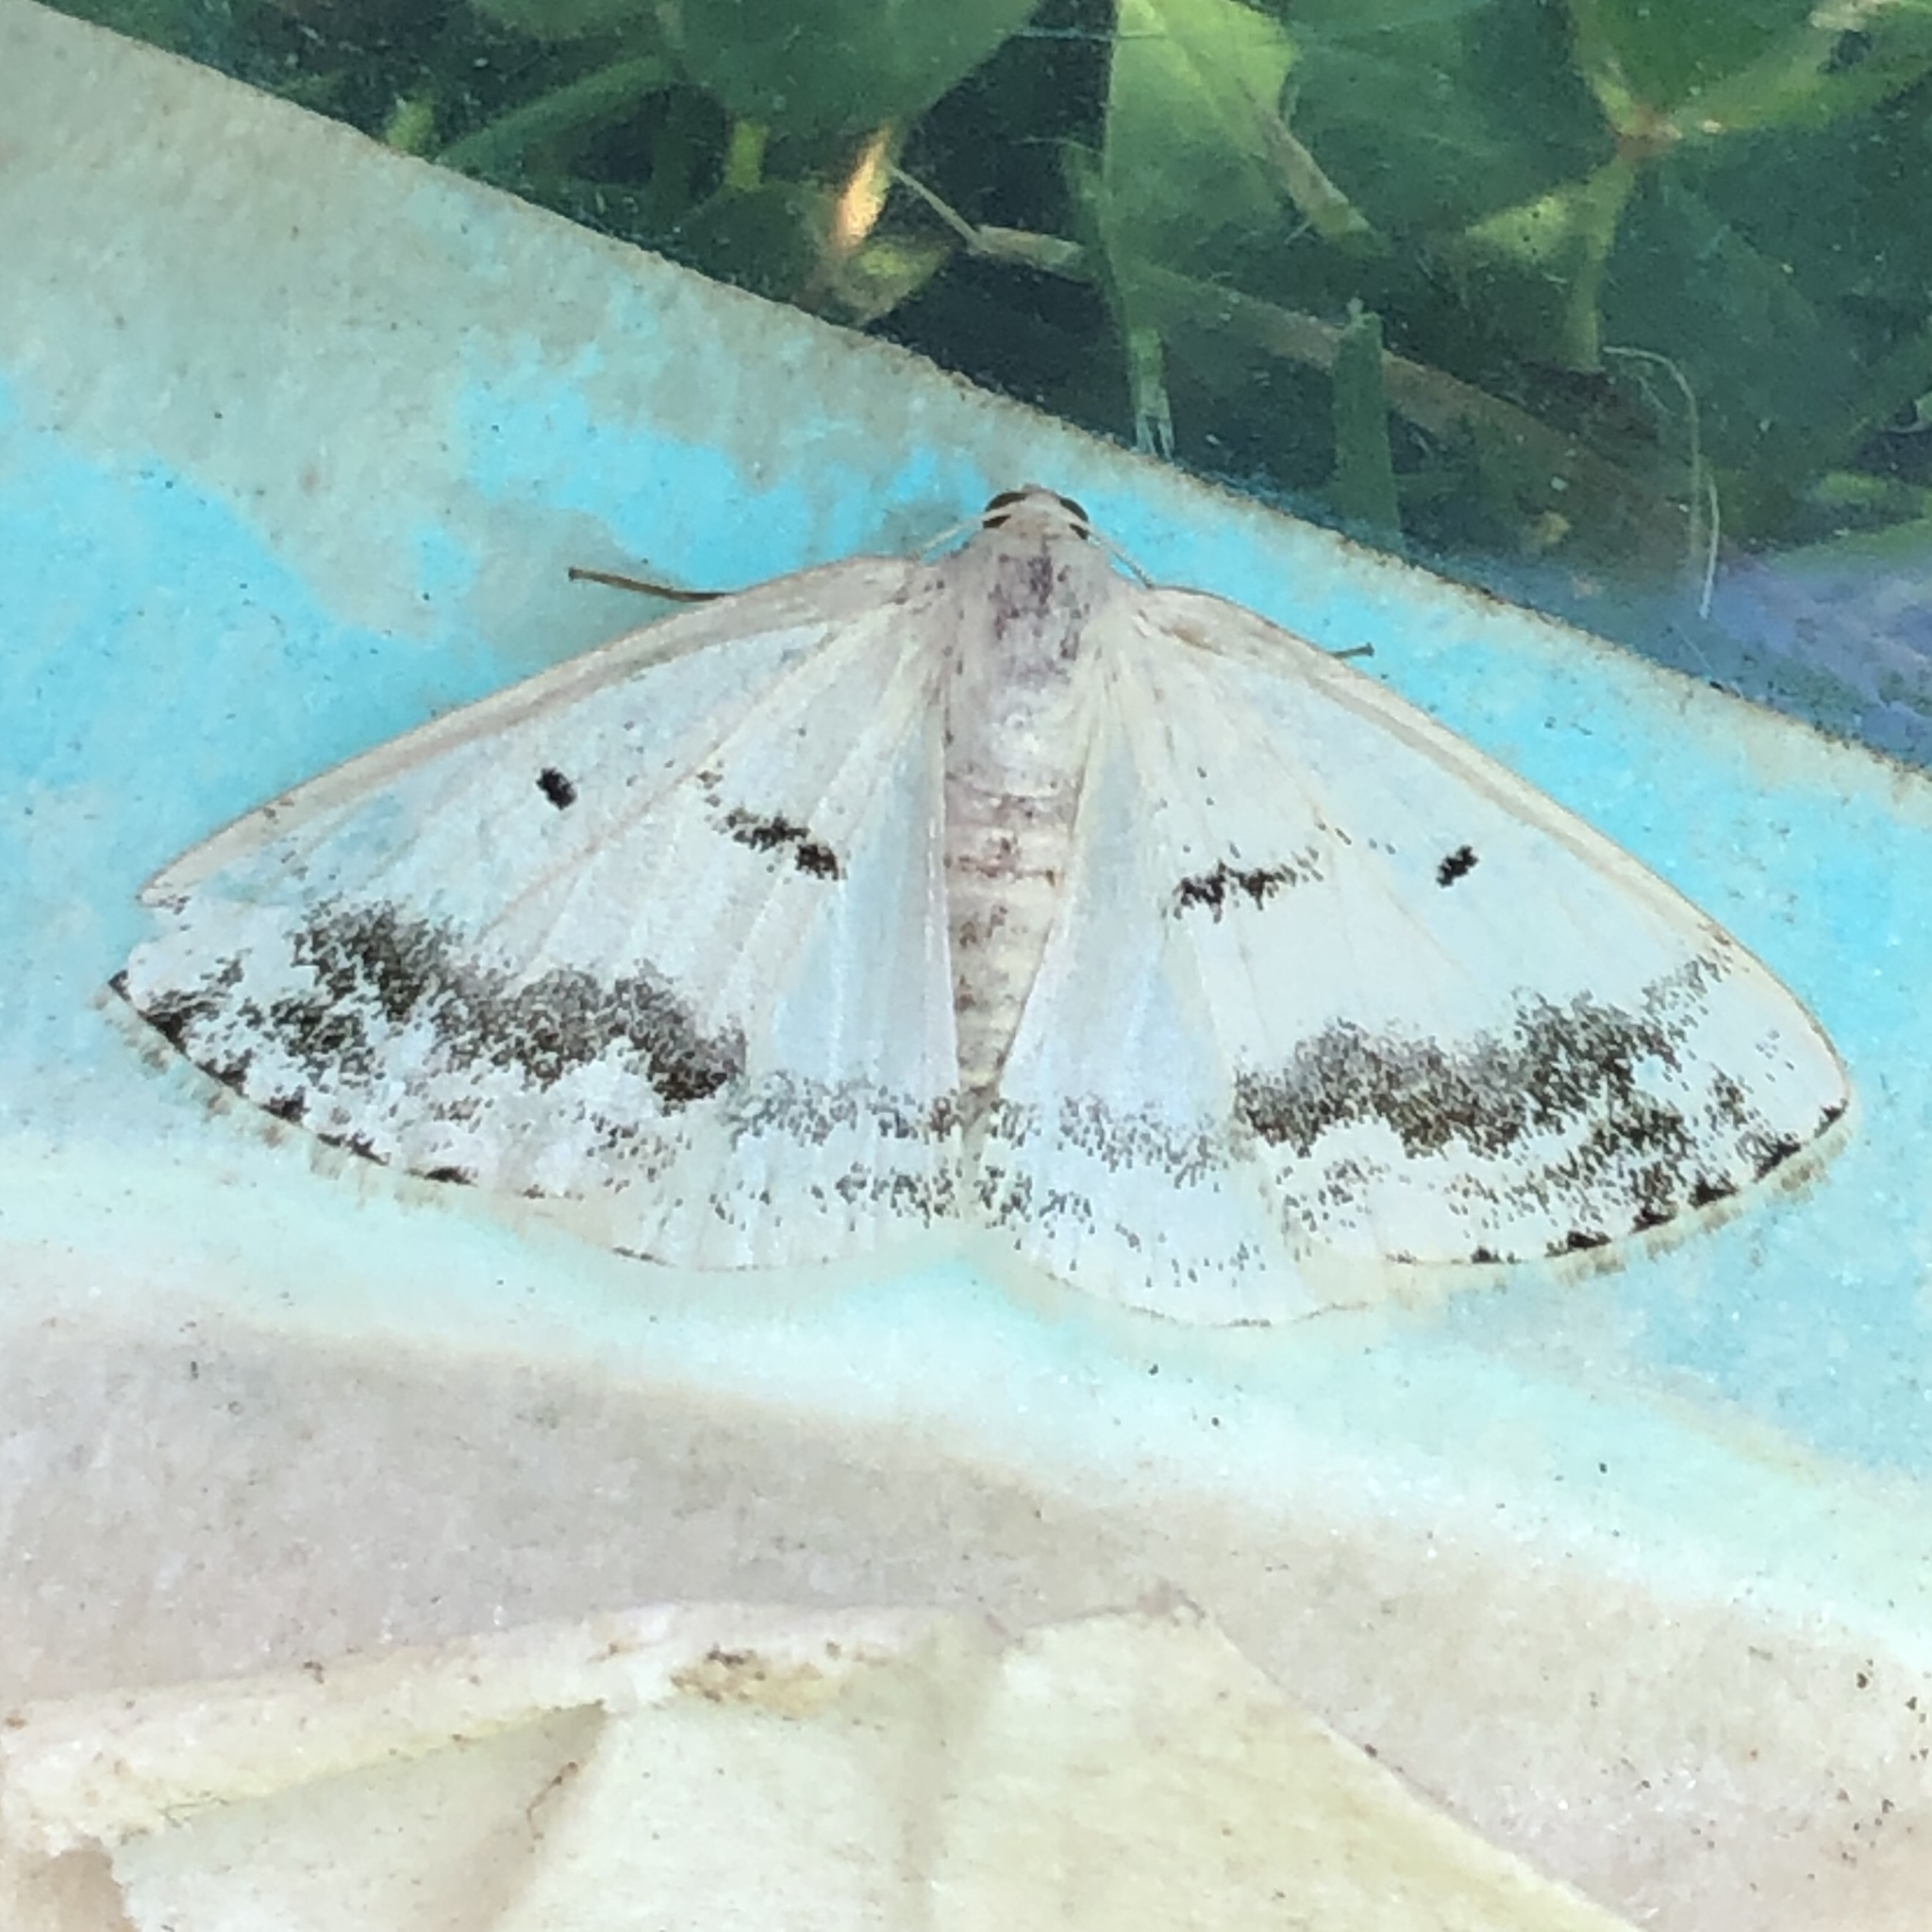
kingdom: Animalia
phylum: Arthropoda
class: Insecta
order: Lepidoptera
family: Geometridae
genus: Lomographa
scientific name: Lomographa temerata
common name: Clouded silver
